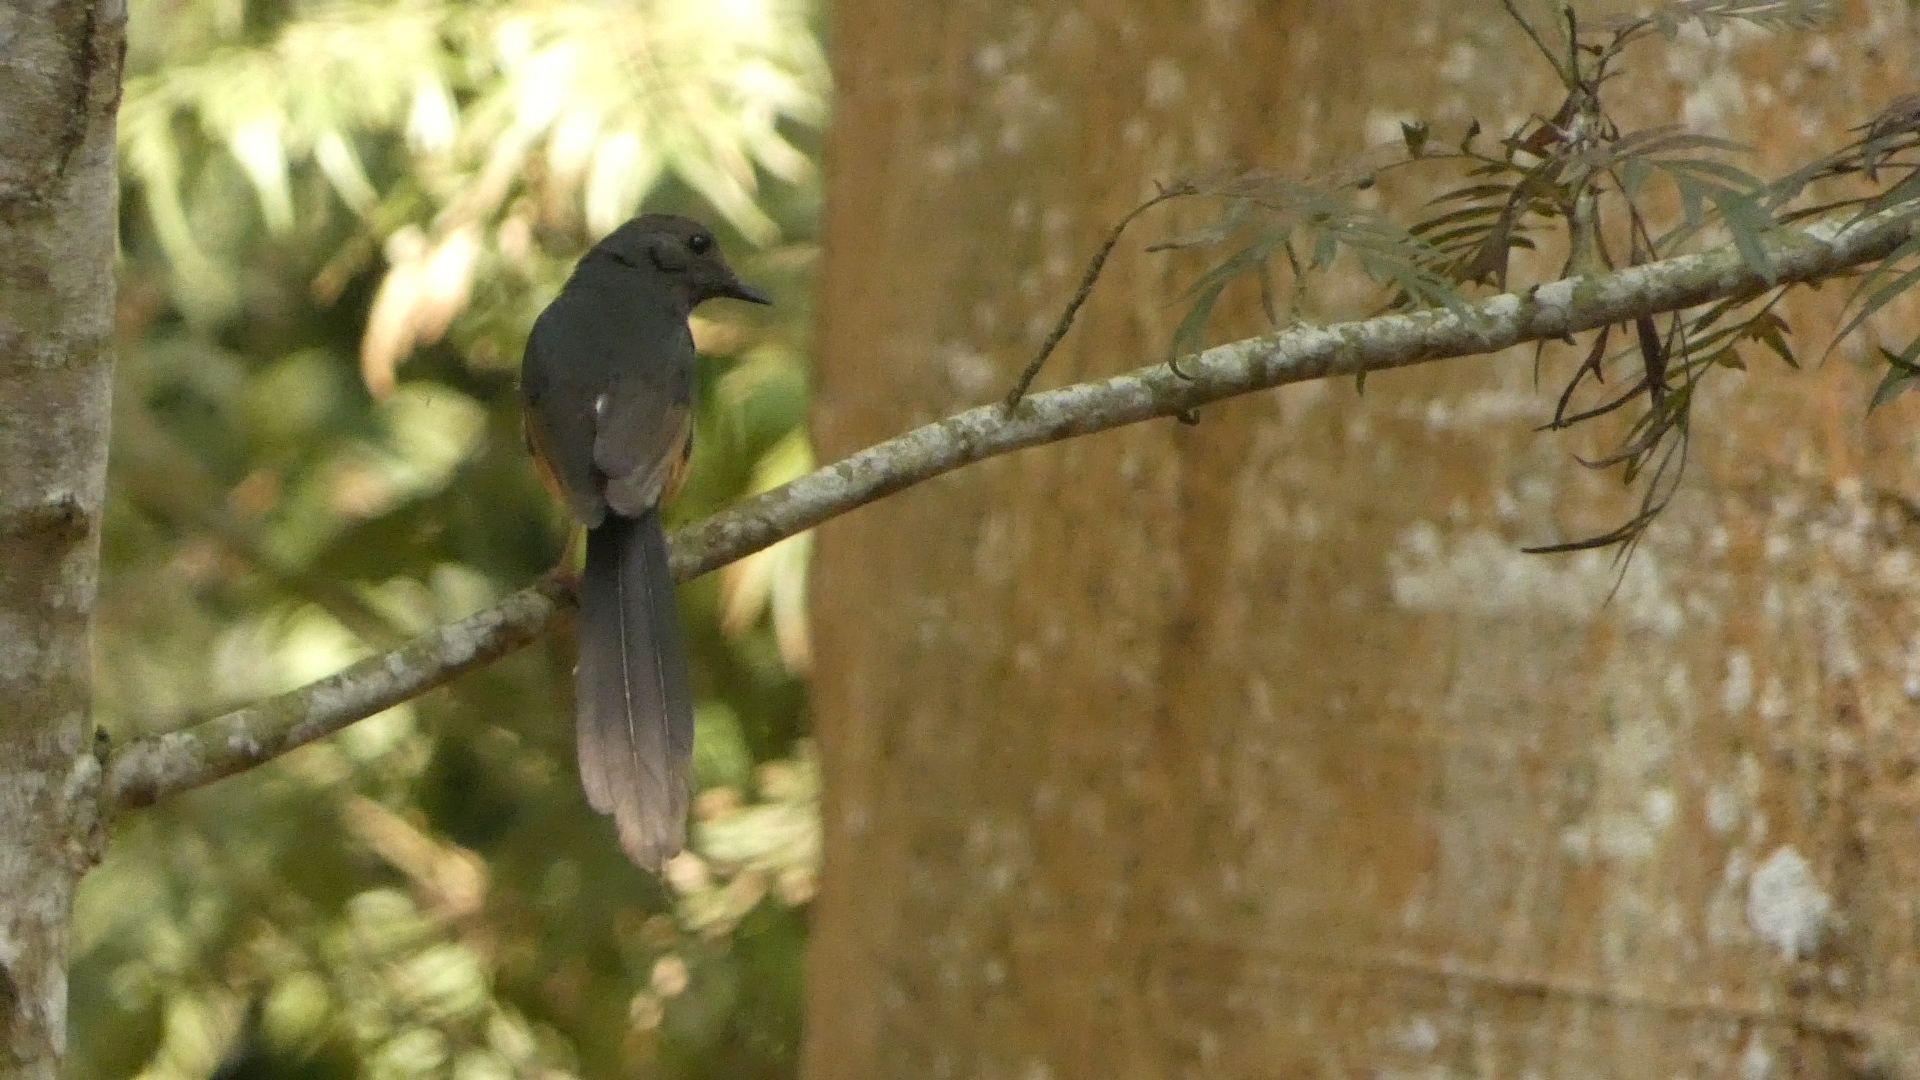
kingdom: Animalia
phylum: Chordata
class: Aves
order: Passeriformes
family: Muscicapidae
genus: Copsychus
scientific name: Copsychus malabaricus
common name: White-rumped shama
